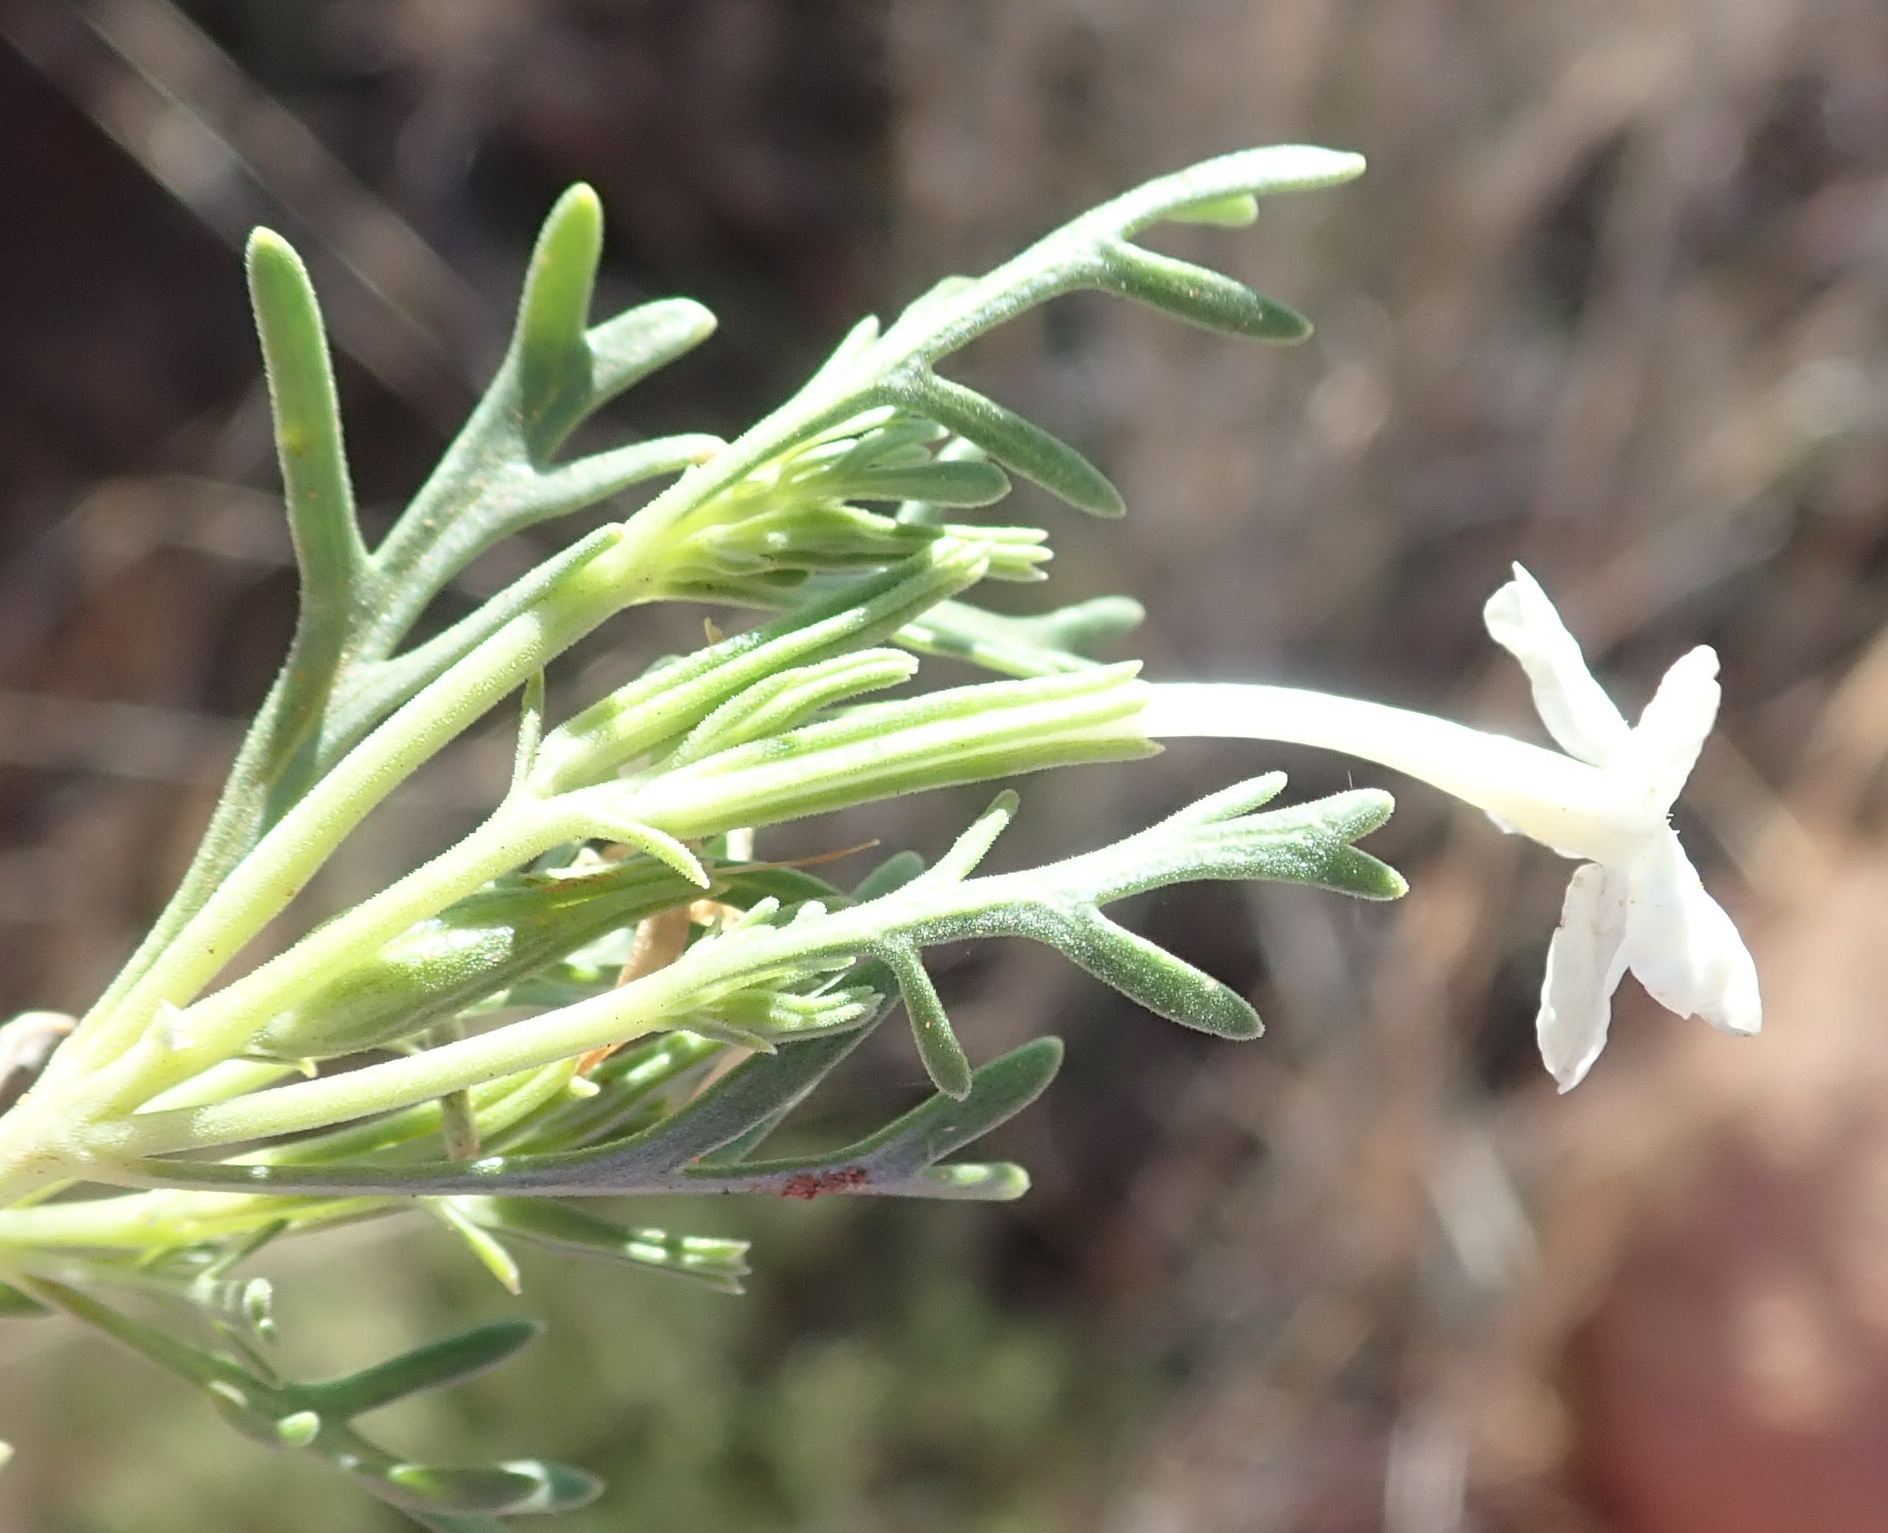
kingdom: Plantae
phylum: Tracheophyta
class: Magnoliopsida
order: Lamiales
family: Verbenaceae
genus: Chascanum
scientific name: Chascanum pinnatifidum
